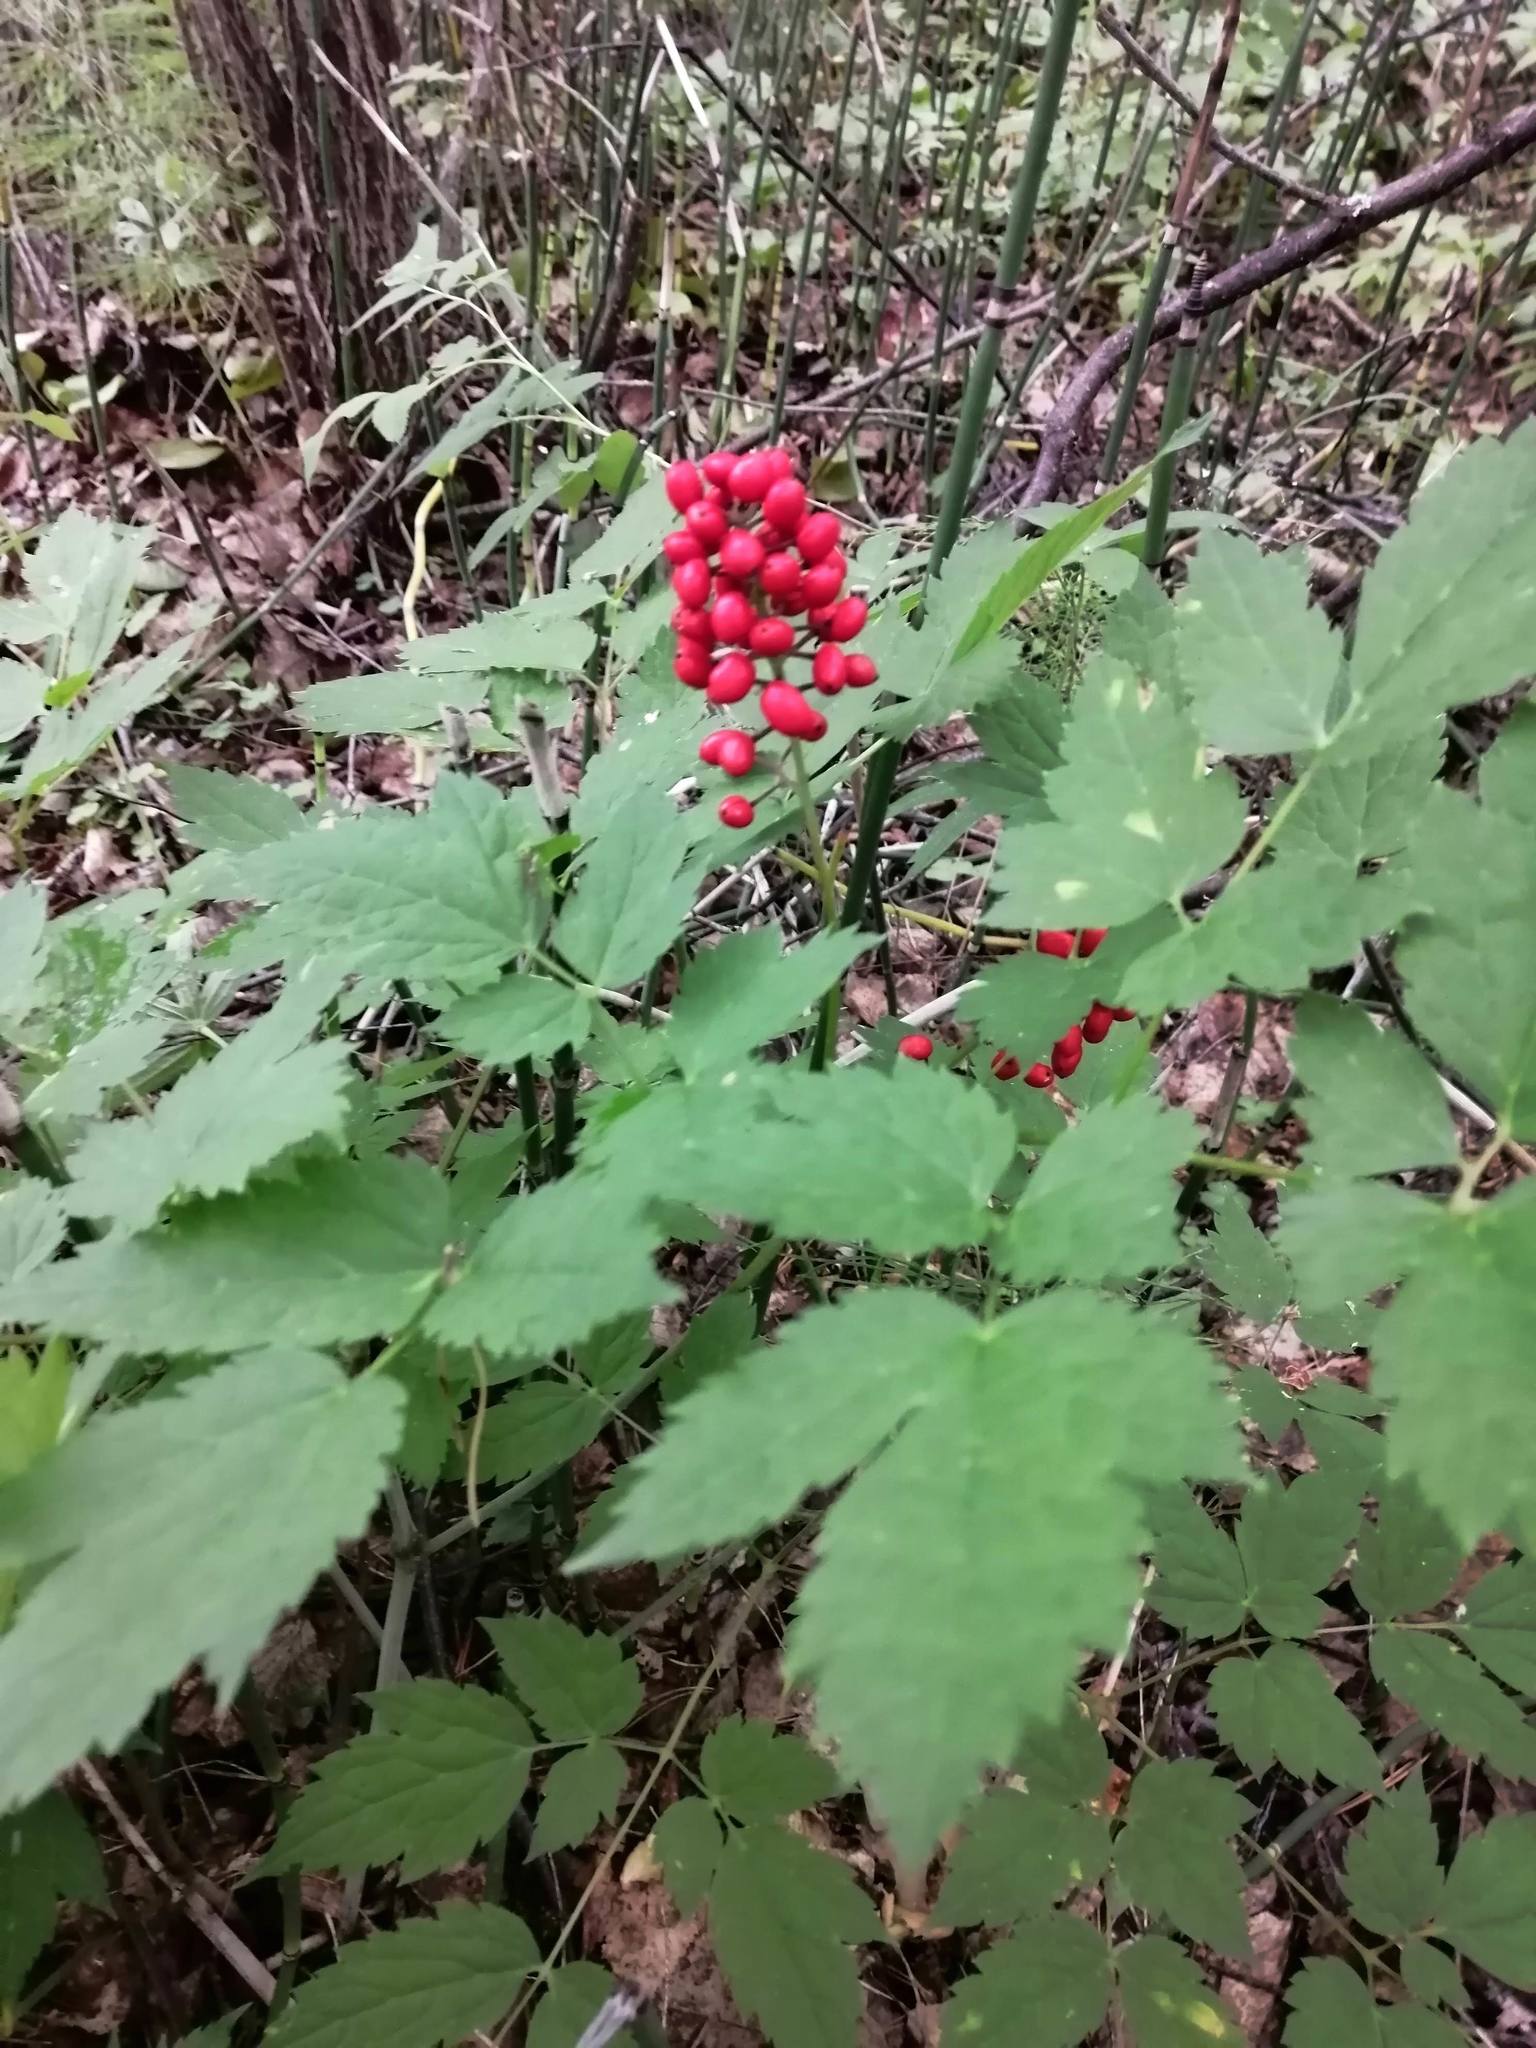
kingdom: Plantae
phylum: Tracheophyta
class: Magnoliopsida
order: Ranunculales
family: Ranunculaceae
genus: Actaea
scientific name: Actaea erythrocarpa
